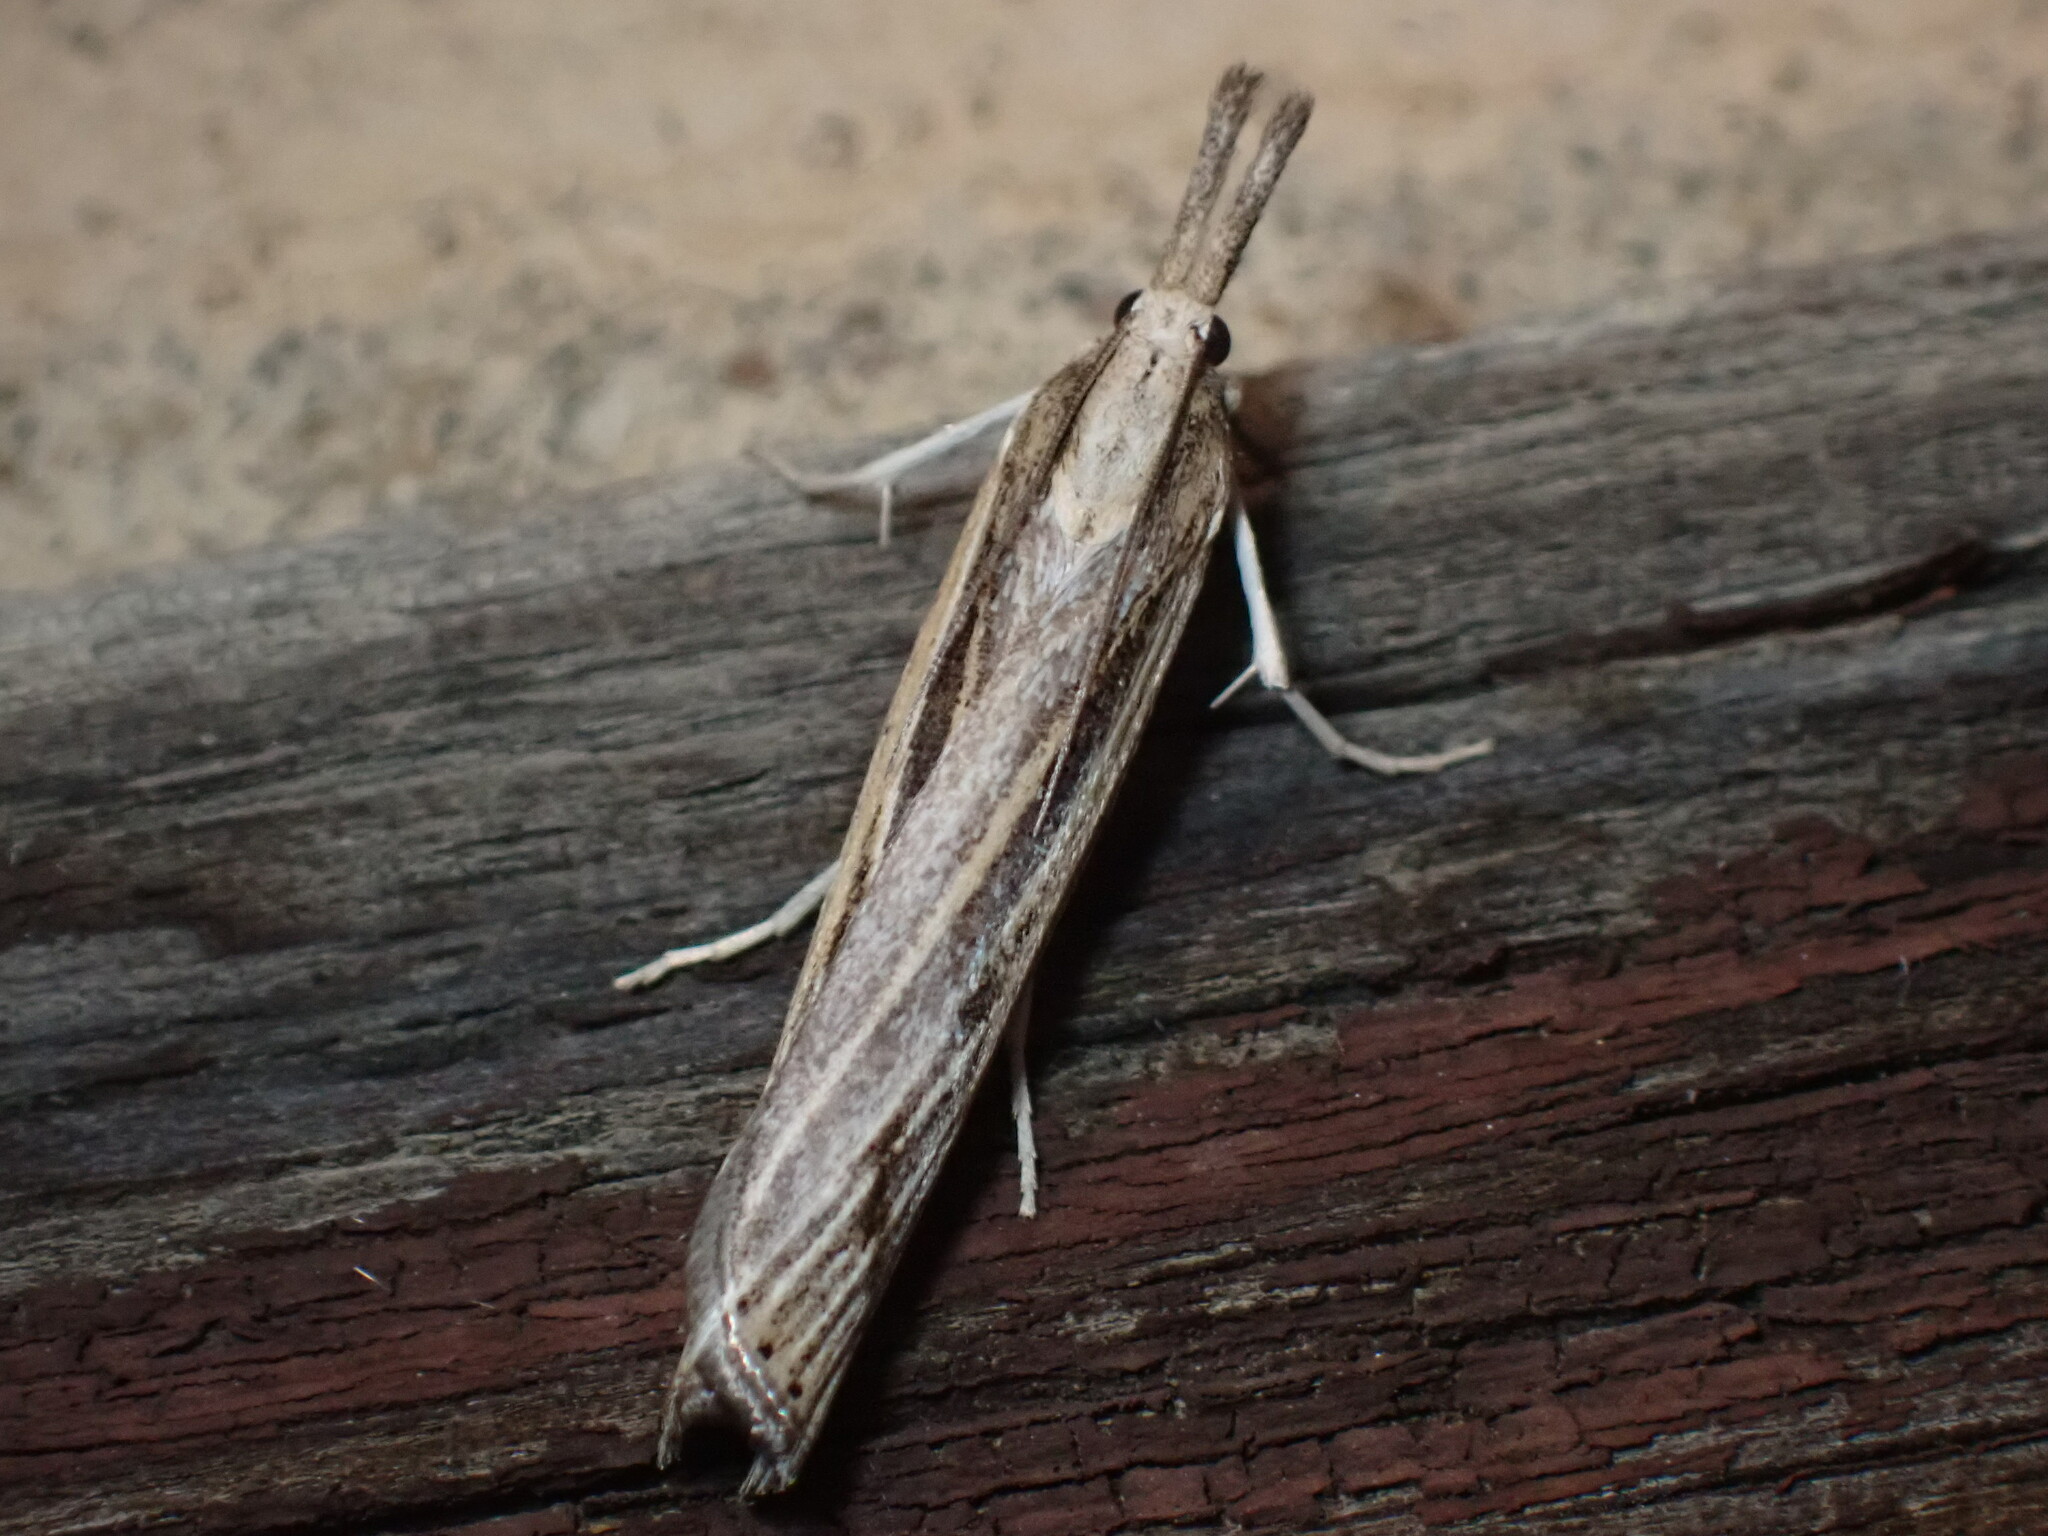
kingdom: Animalia
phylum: Arthropoda
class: Insecta
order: Lepidoptera
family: Crambidae
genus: Pediasia
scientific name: Pediasia trisecta
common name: Sod webworm moth
